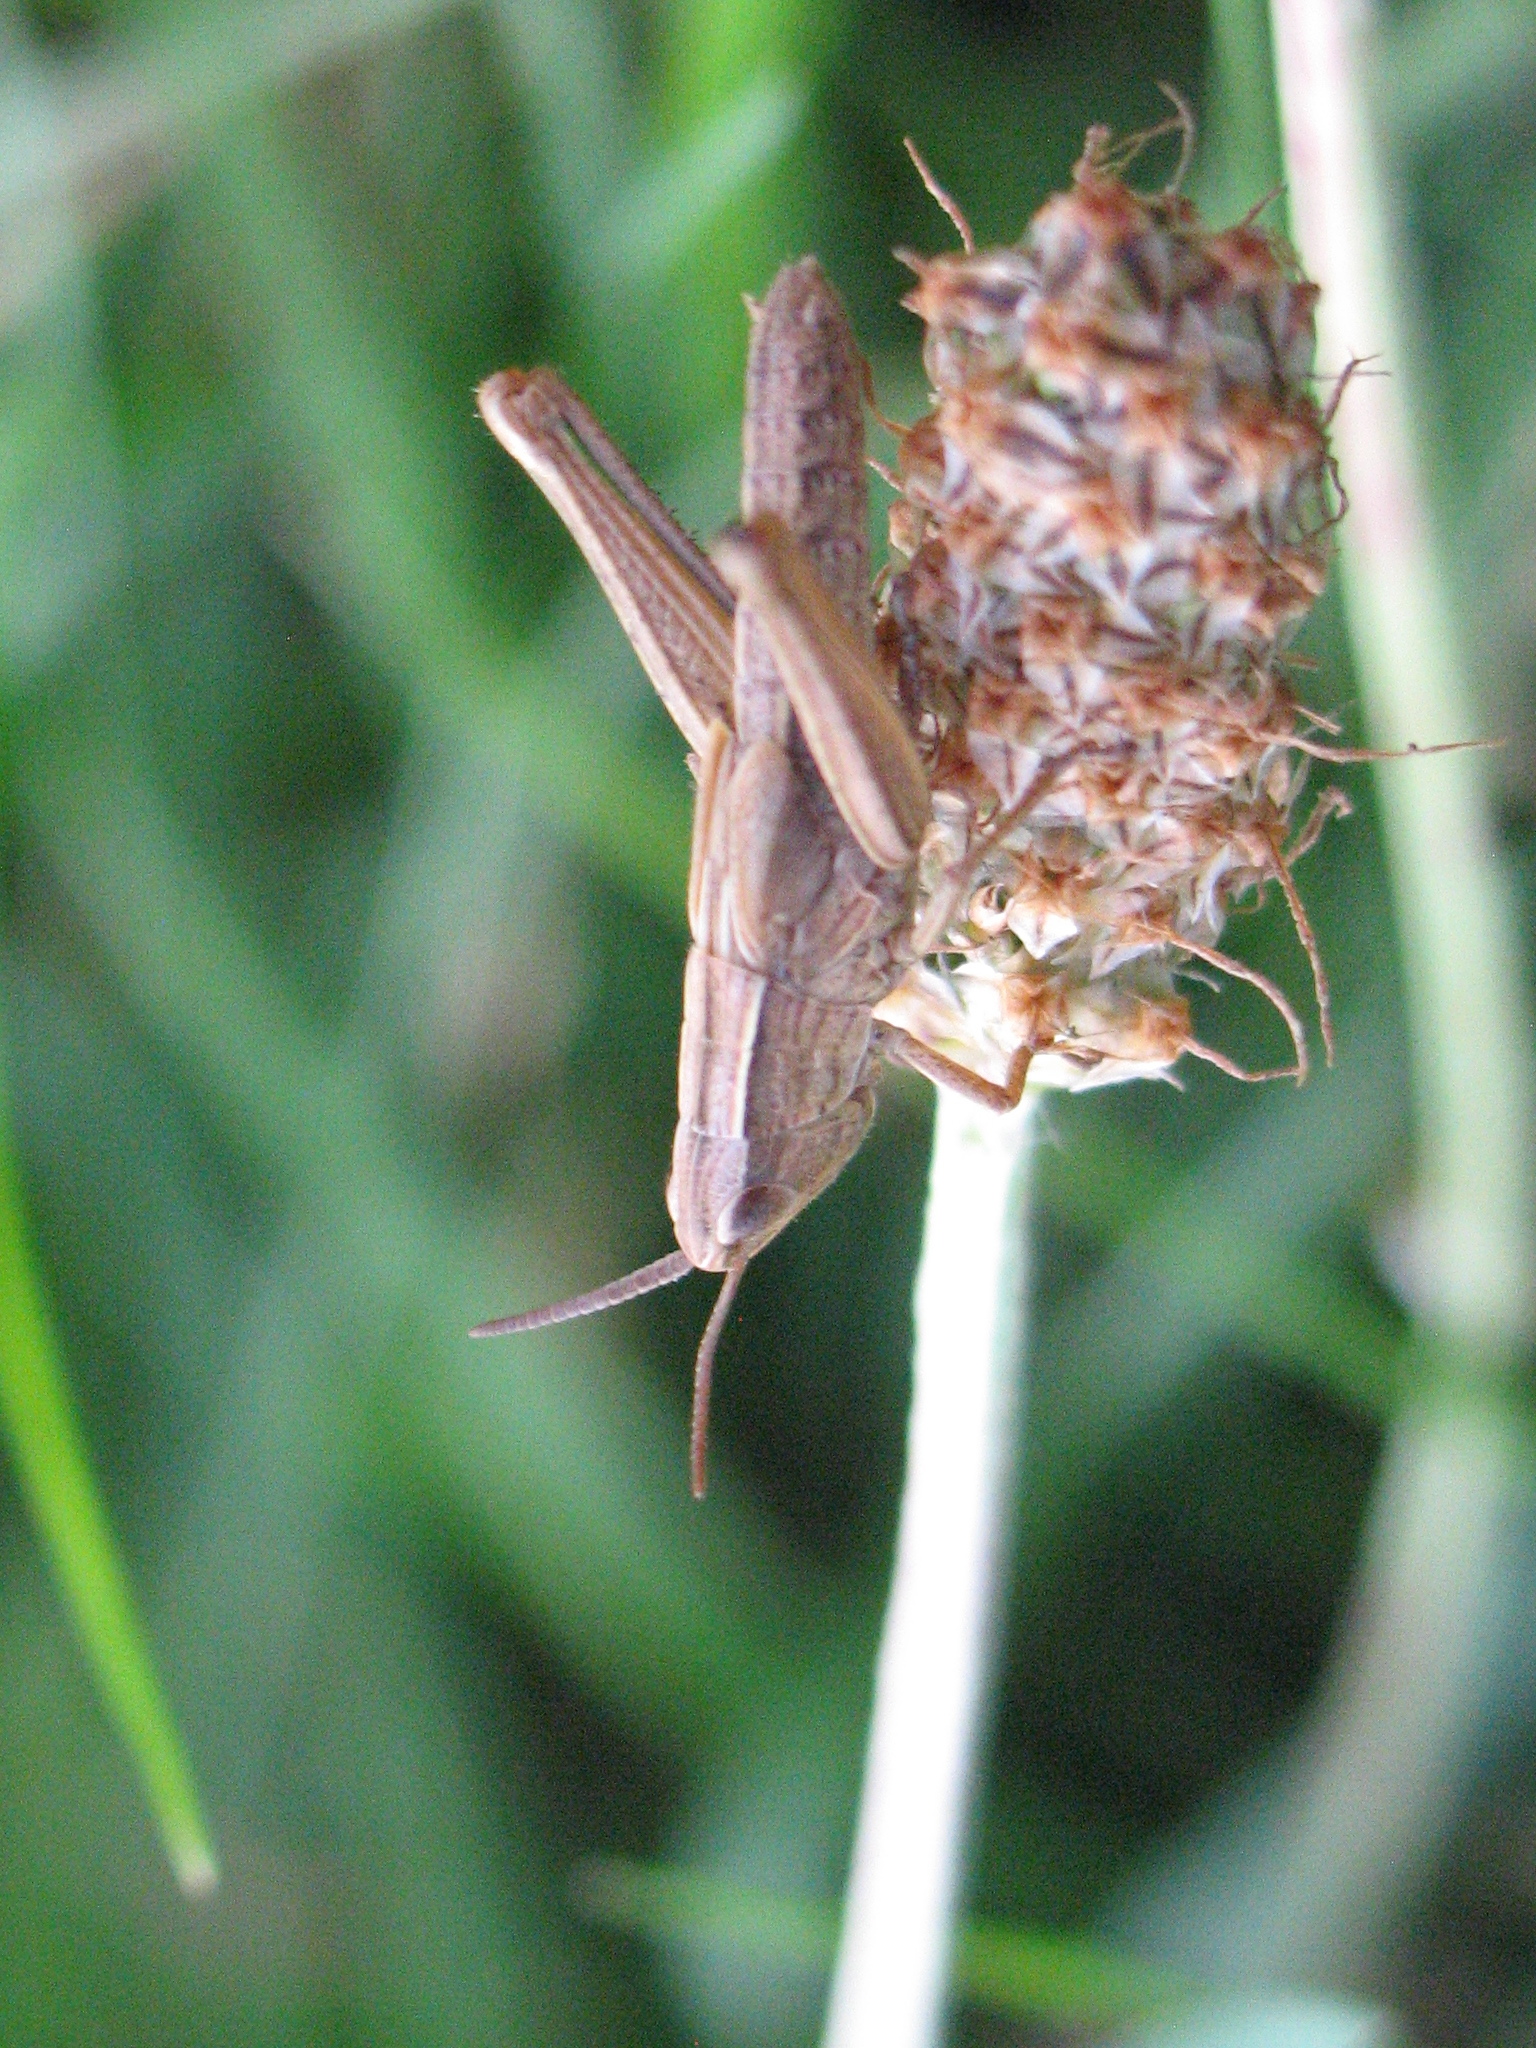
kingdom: Animalia
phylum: Arthropoda
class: Insecta
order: Orthoptera
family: Acrididae
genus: Chorthippus
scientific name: Chorthippus albomarginatus
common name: Lesser marsh grasshopper
